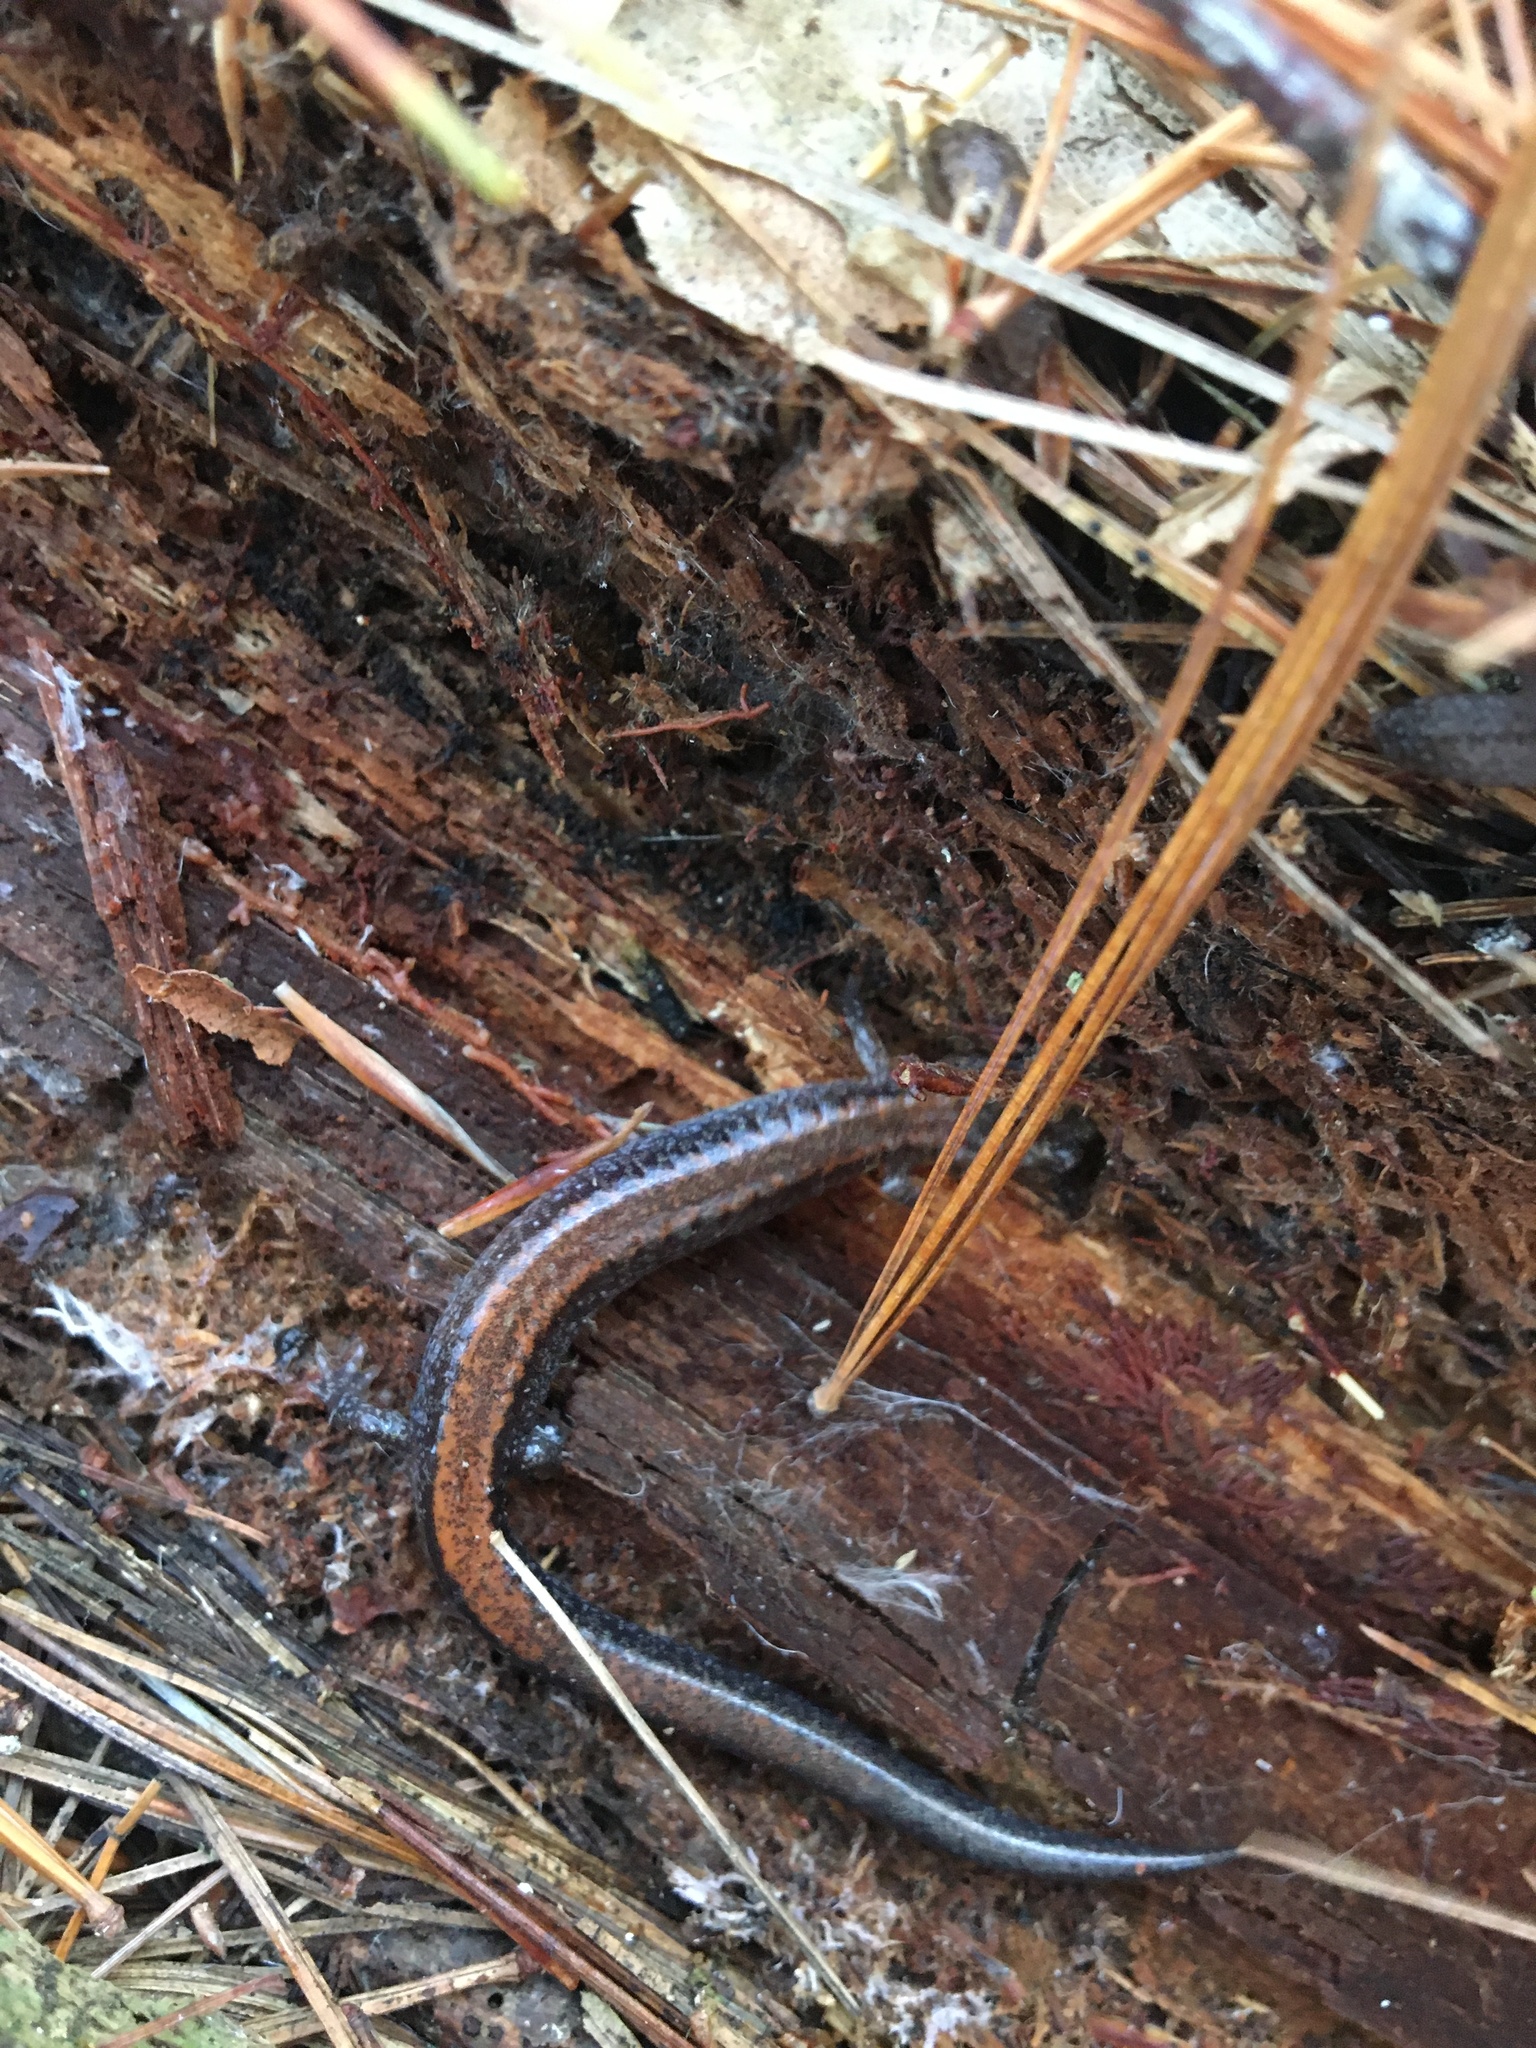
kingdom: Animalia
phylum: Chordata
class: Amphibia
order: Caudata
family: Plethodontidae
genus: Plethodon
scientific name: Plethodon cinereus
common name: Redback salamander
